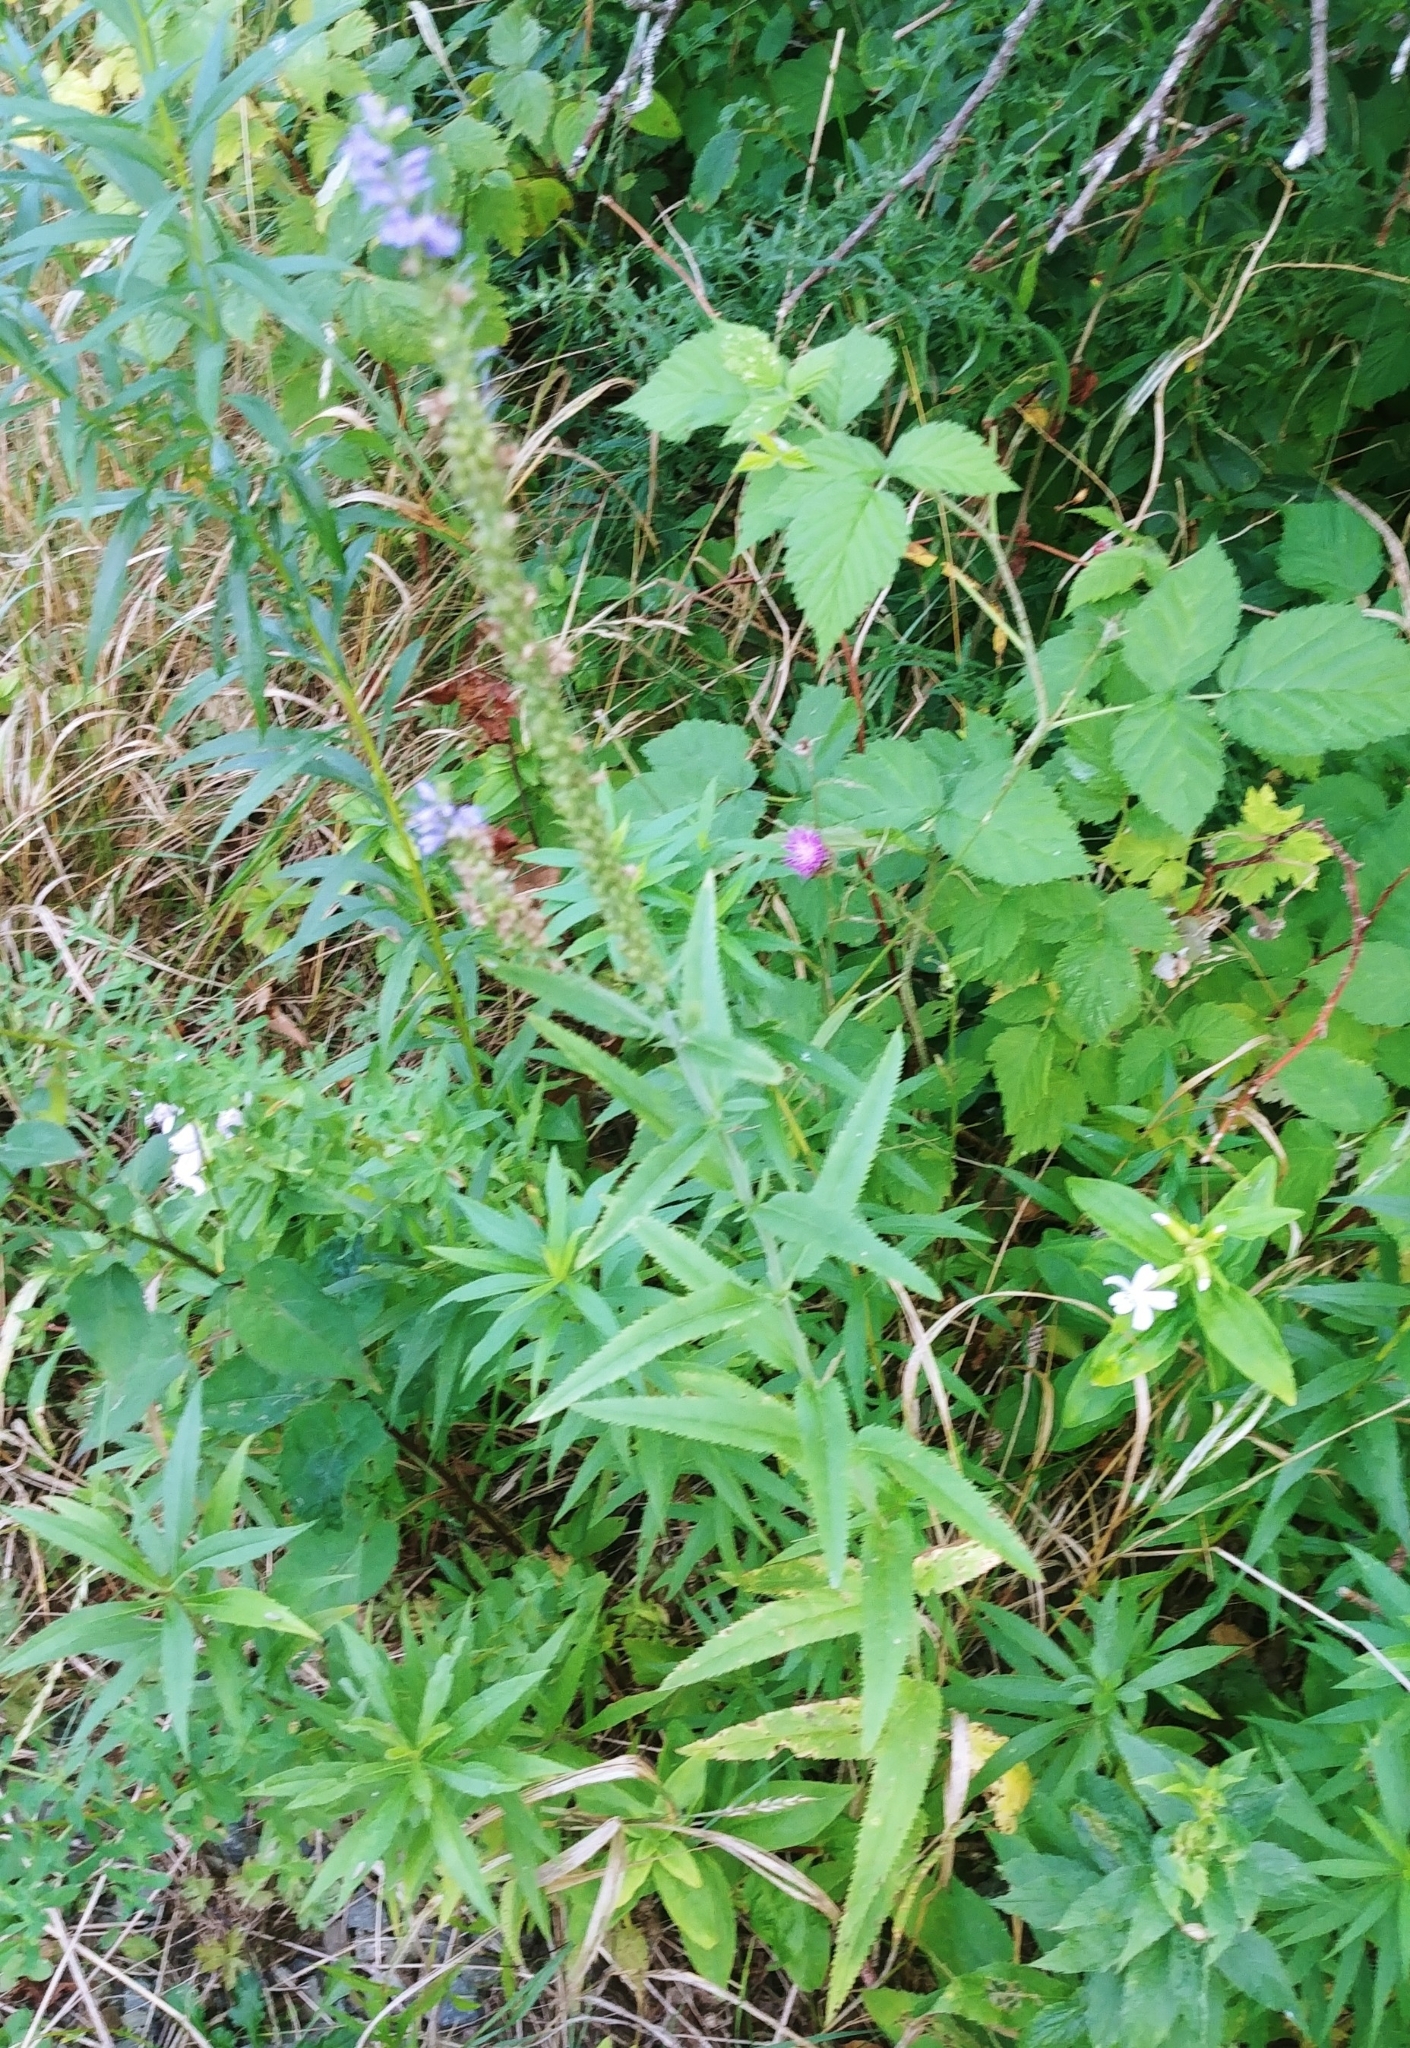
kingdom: Plantae
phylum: Tracheophyta
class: Magnoliopsida
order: Myrtales
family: Lythraceae
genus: Lythrum
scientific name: Lythrum salicaria
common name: Purple loosestrife
